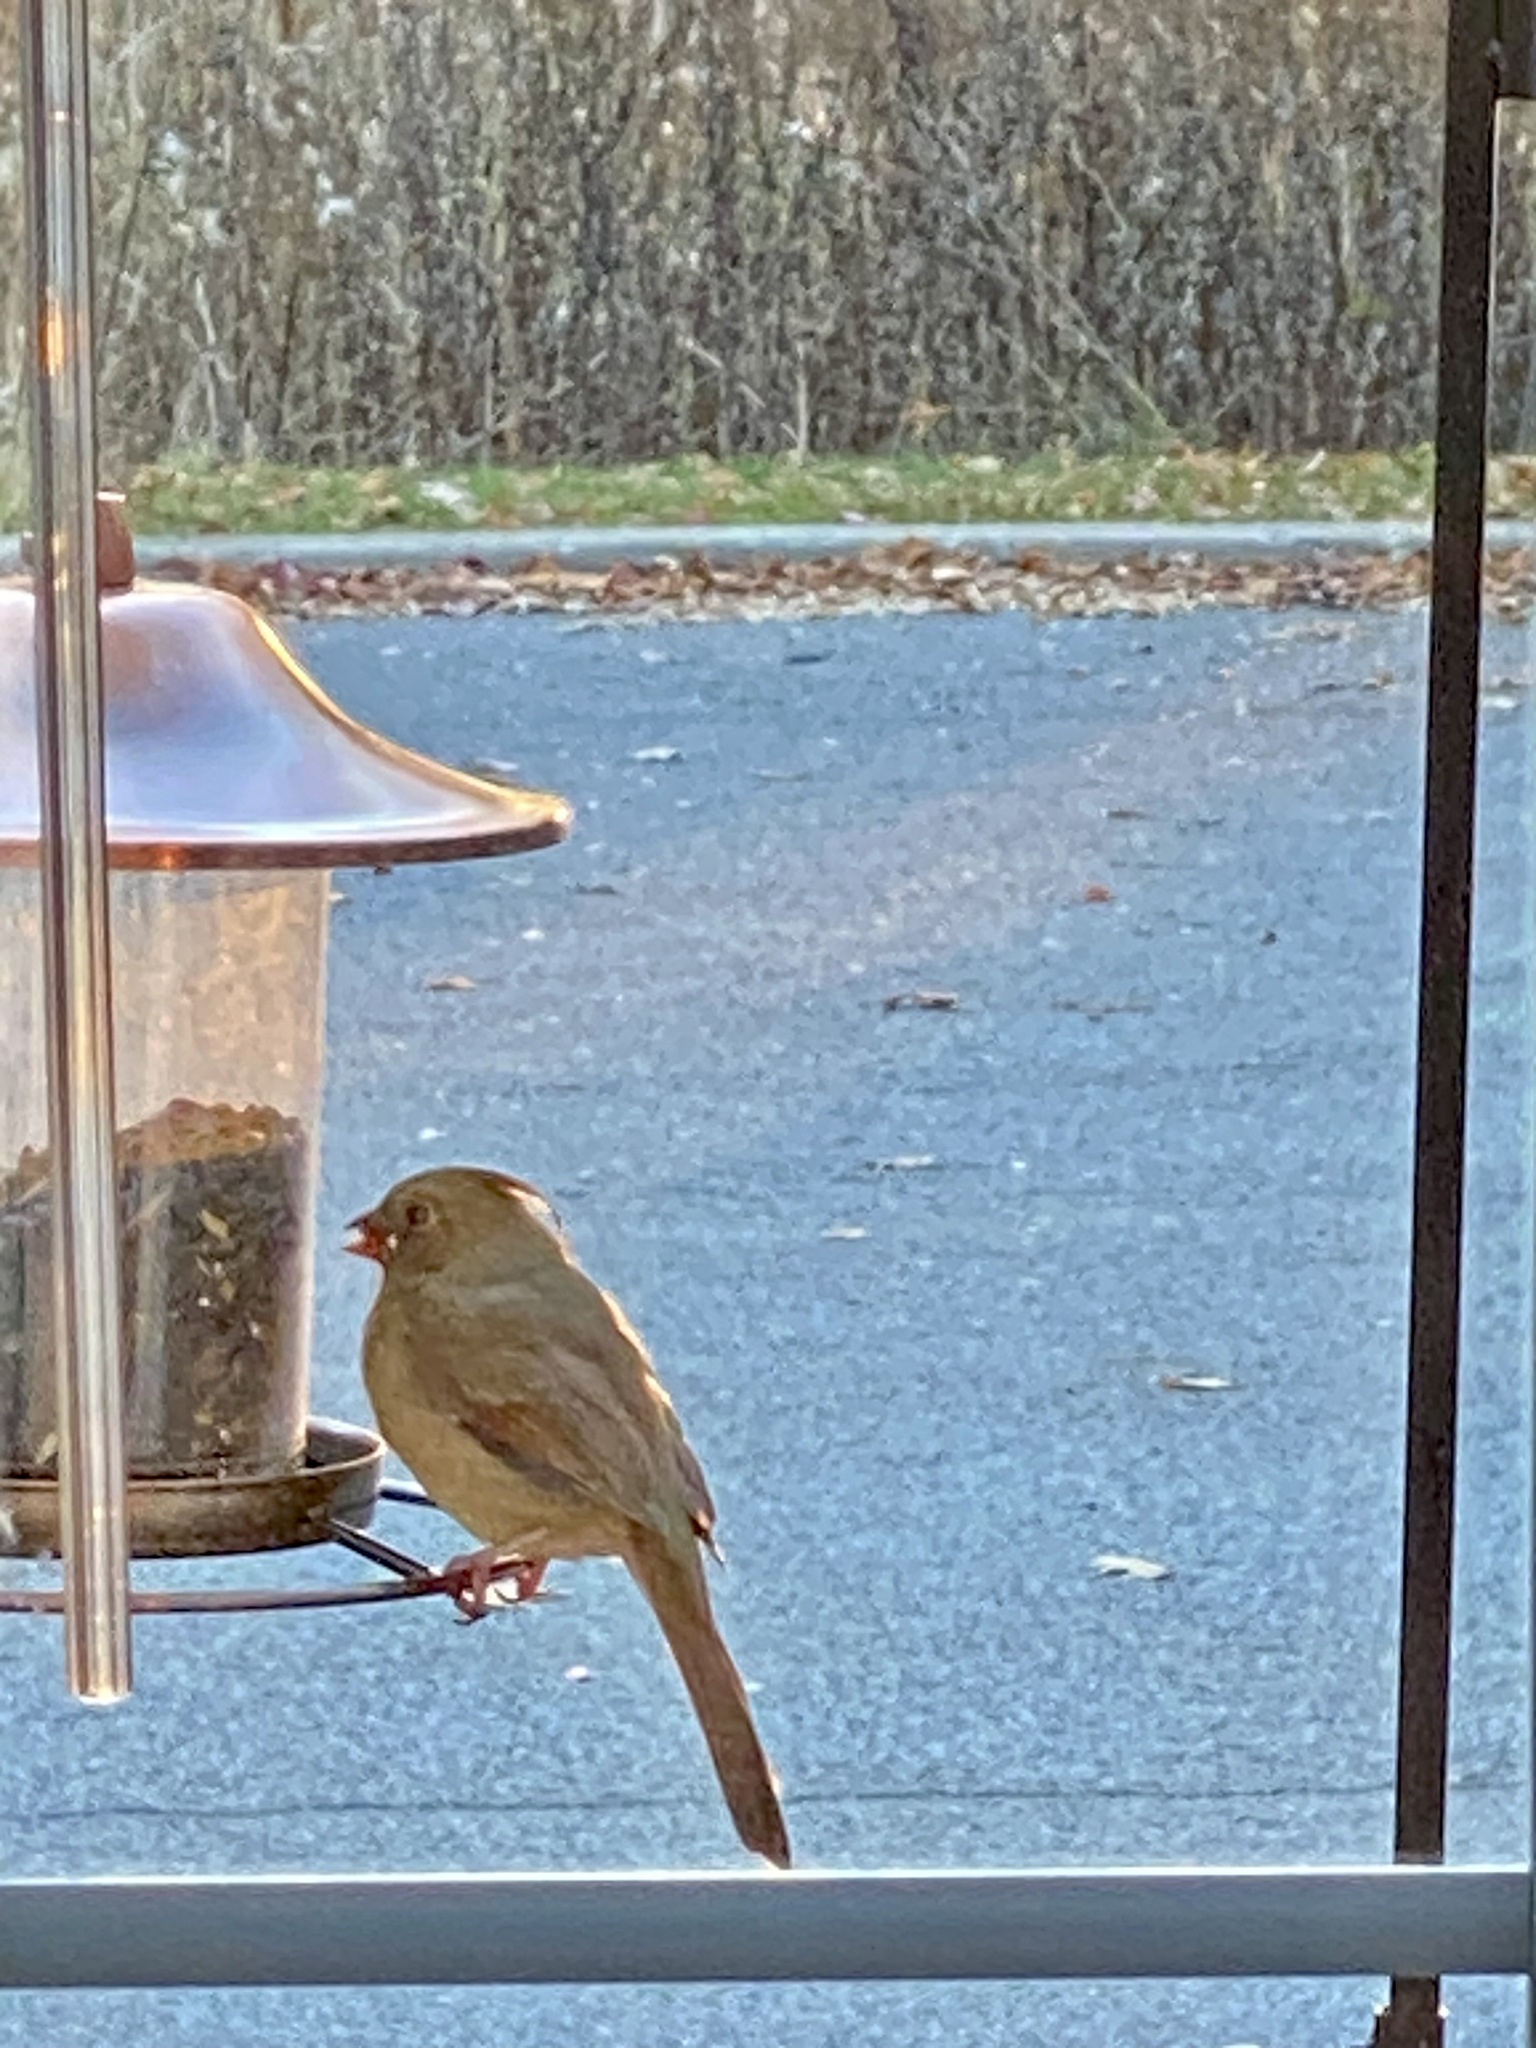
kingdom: Animalia
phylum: Chordata
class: Aves
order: Passeriformes
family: Cardinalidae
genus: Cardinalis
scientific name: Cardinalis cardinalis
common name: Northern cardinal
